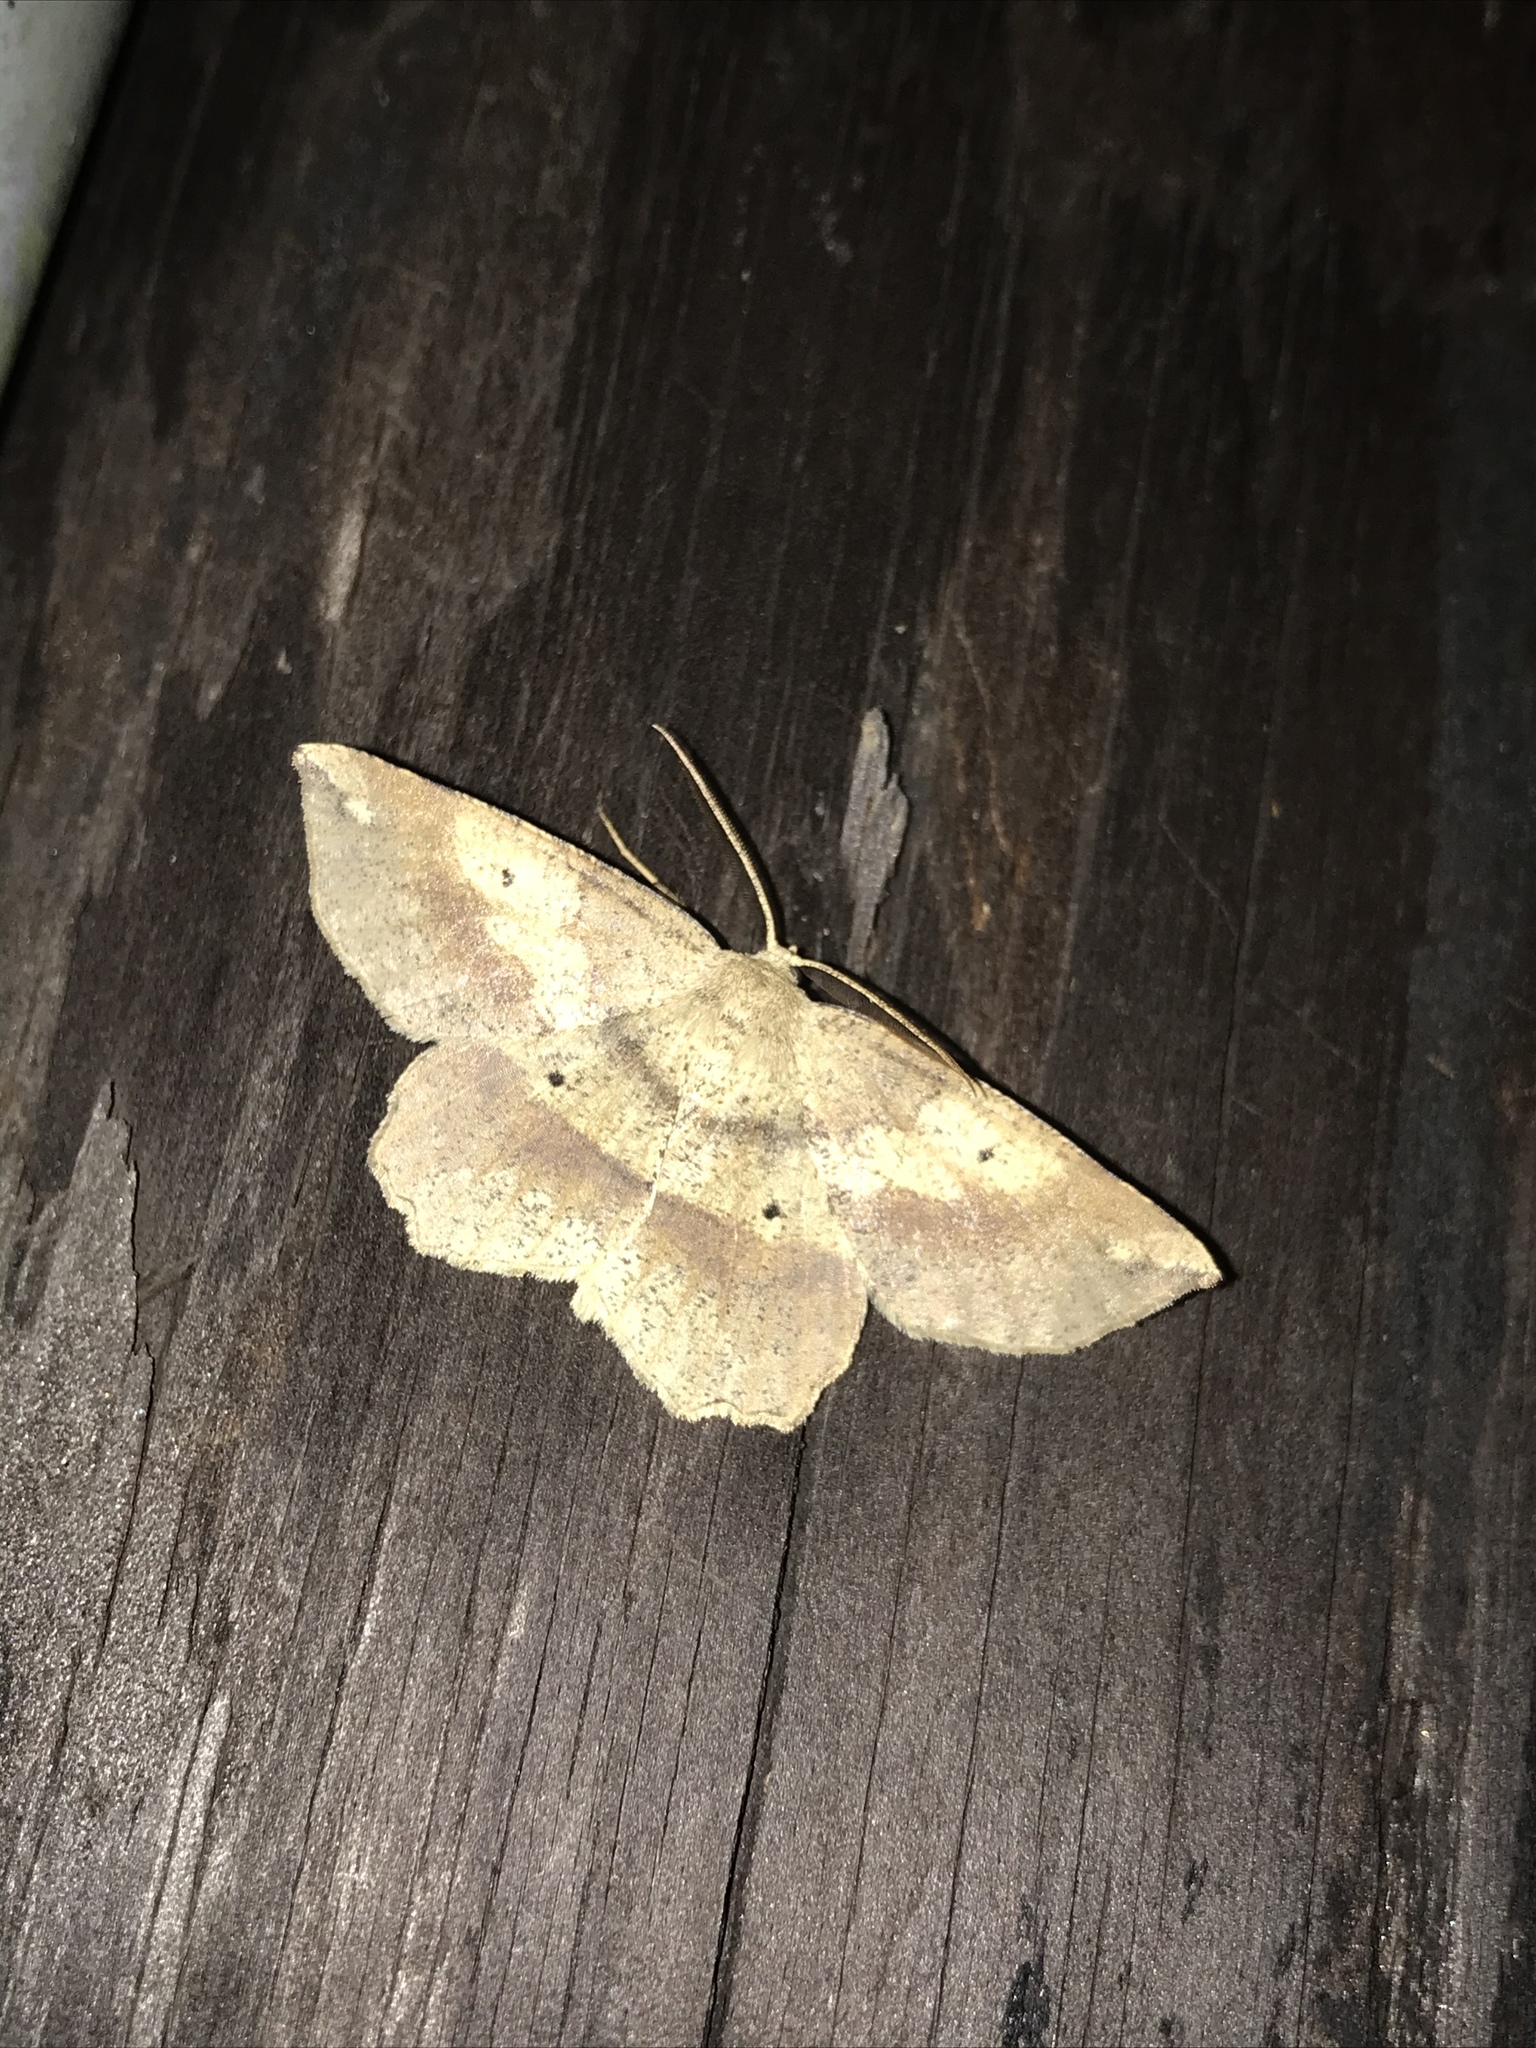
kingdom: Animalia
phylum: Arthropoda
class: Insecta
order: Lepidoptera
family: Geometridae
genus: Euchlaena
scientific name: Euchlaena amoenaria
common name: Deep yellow euchlaena
